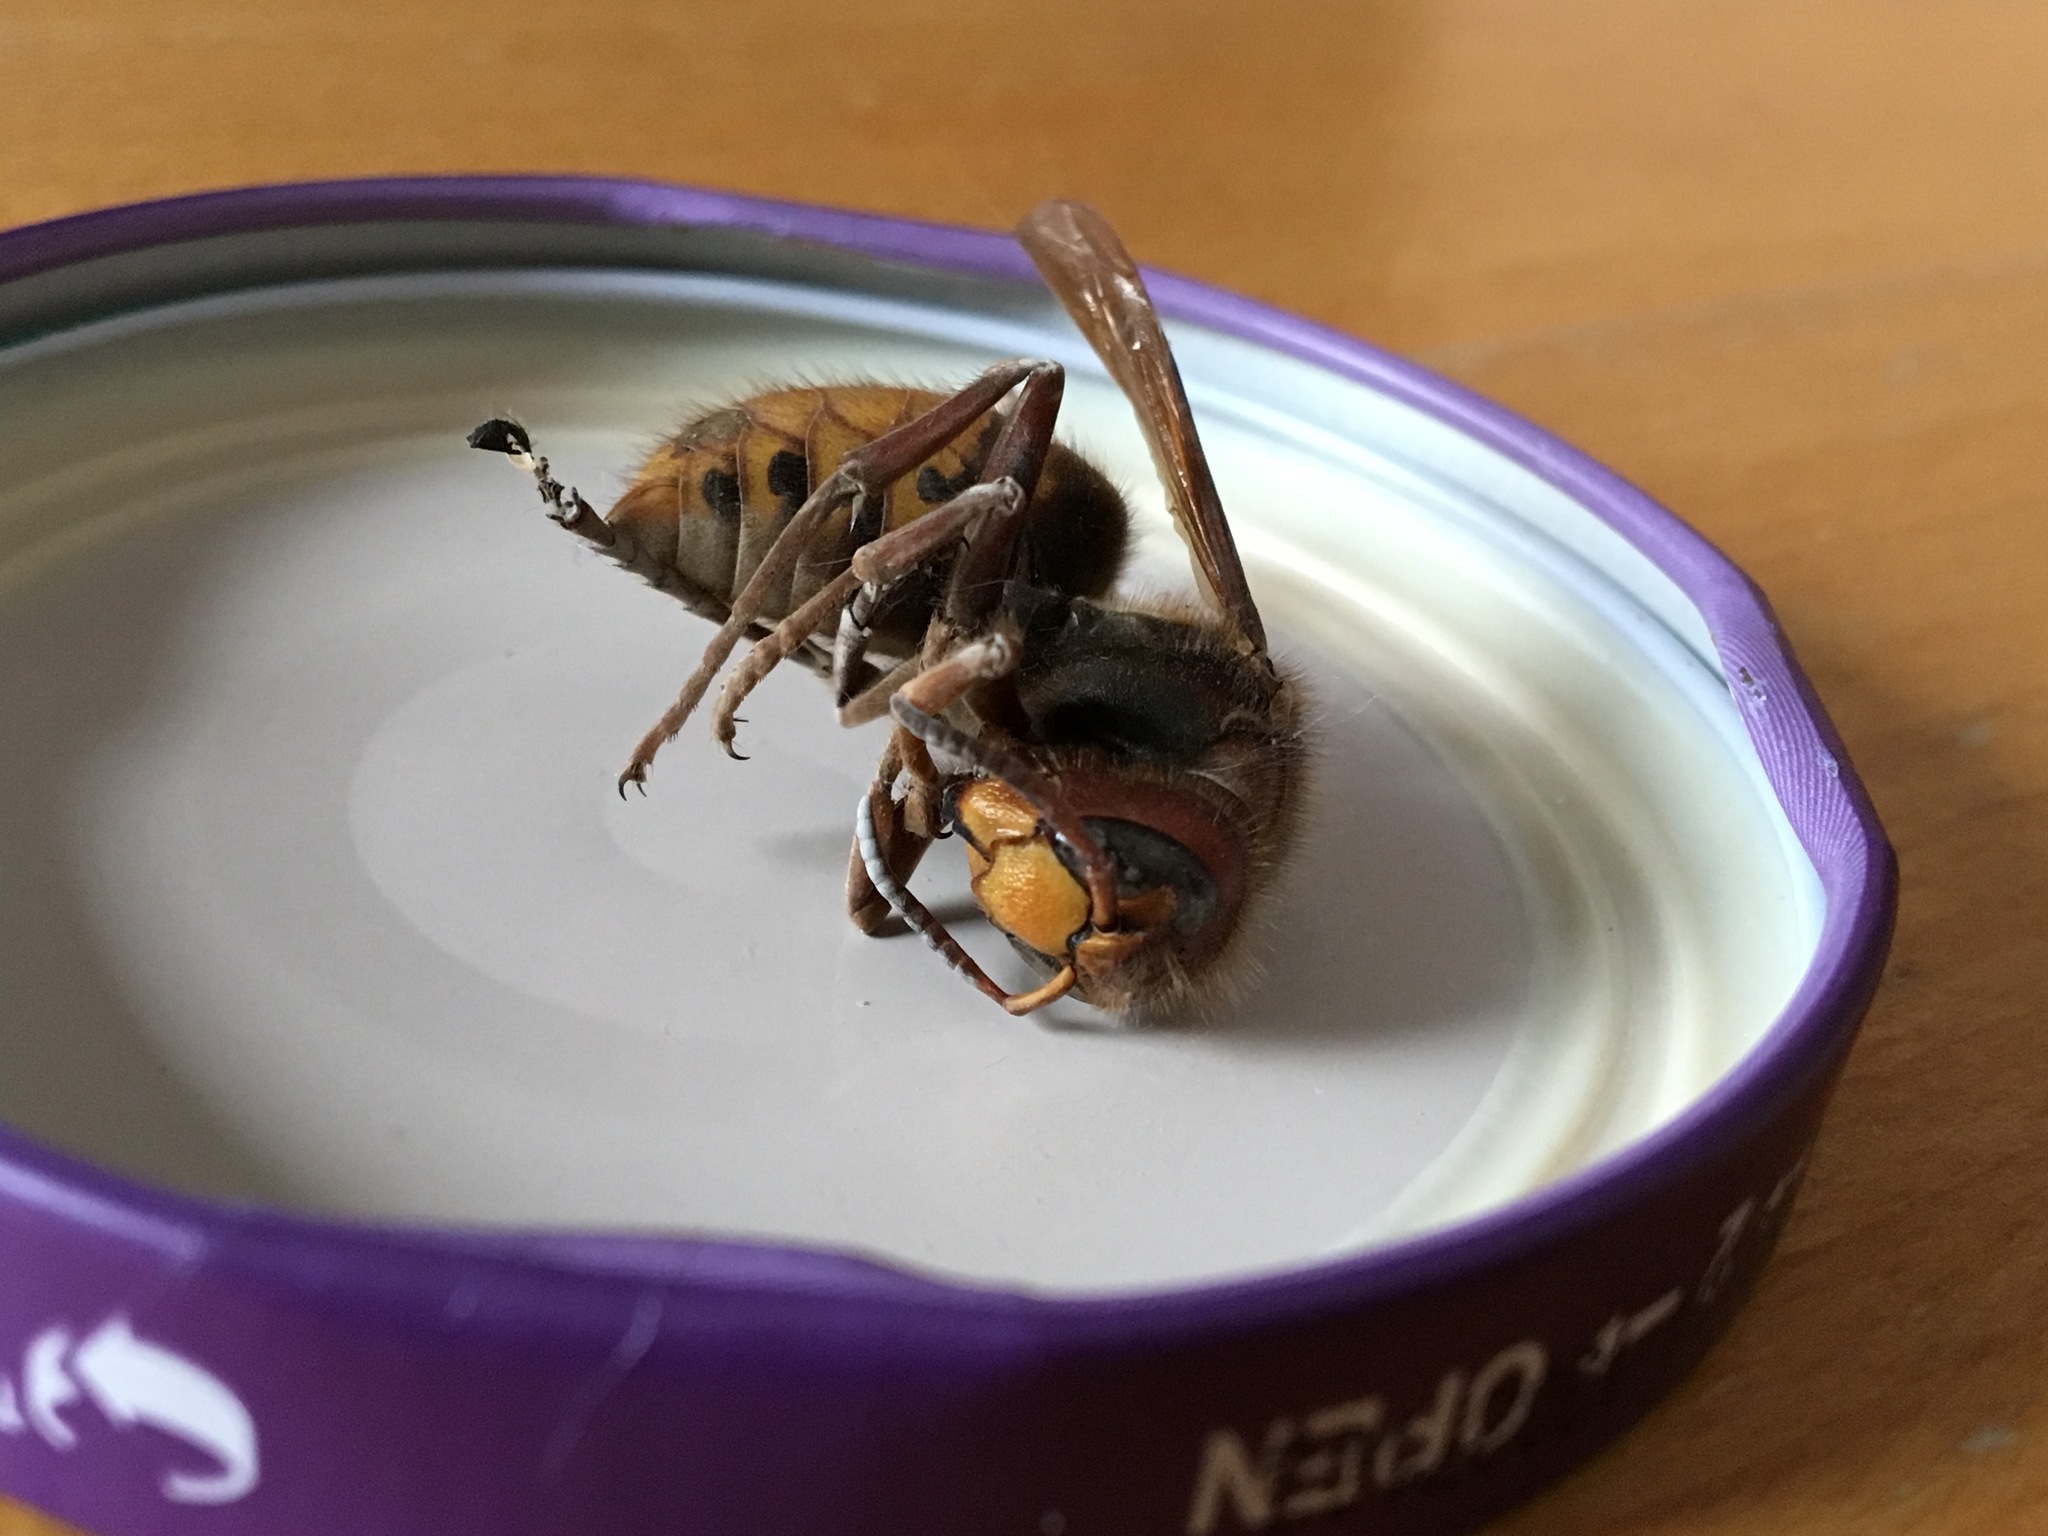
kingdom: Animalia
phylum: Arthropoda
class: Insecta
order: Hymenoptera
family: Vespidae
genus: Vespa
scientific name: Vespa crabro
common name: Hornet
